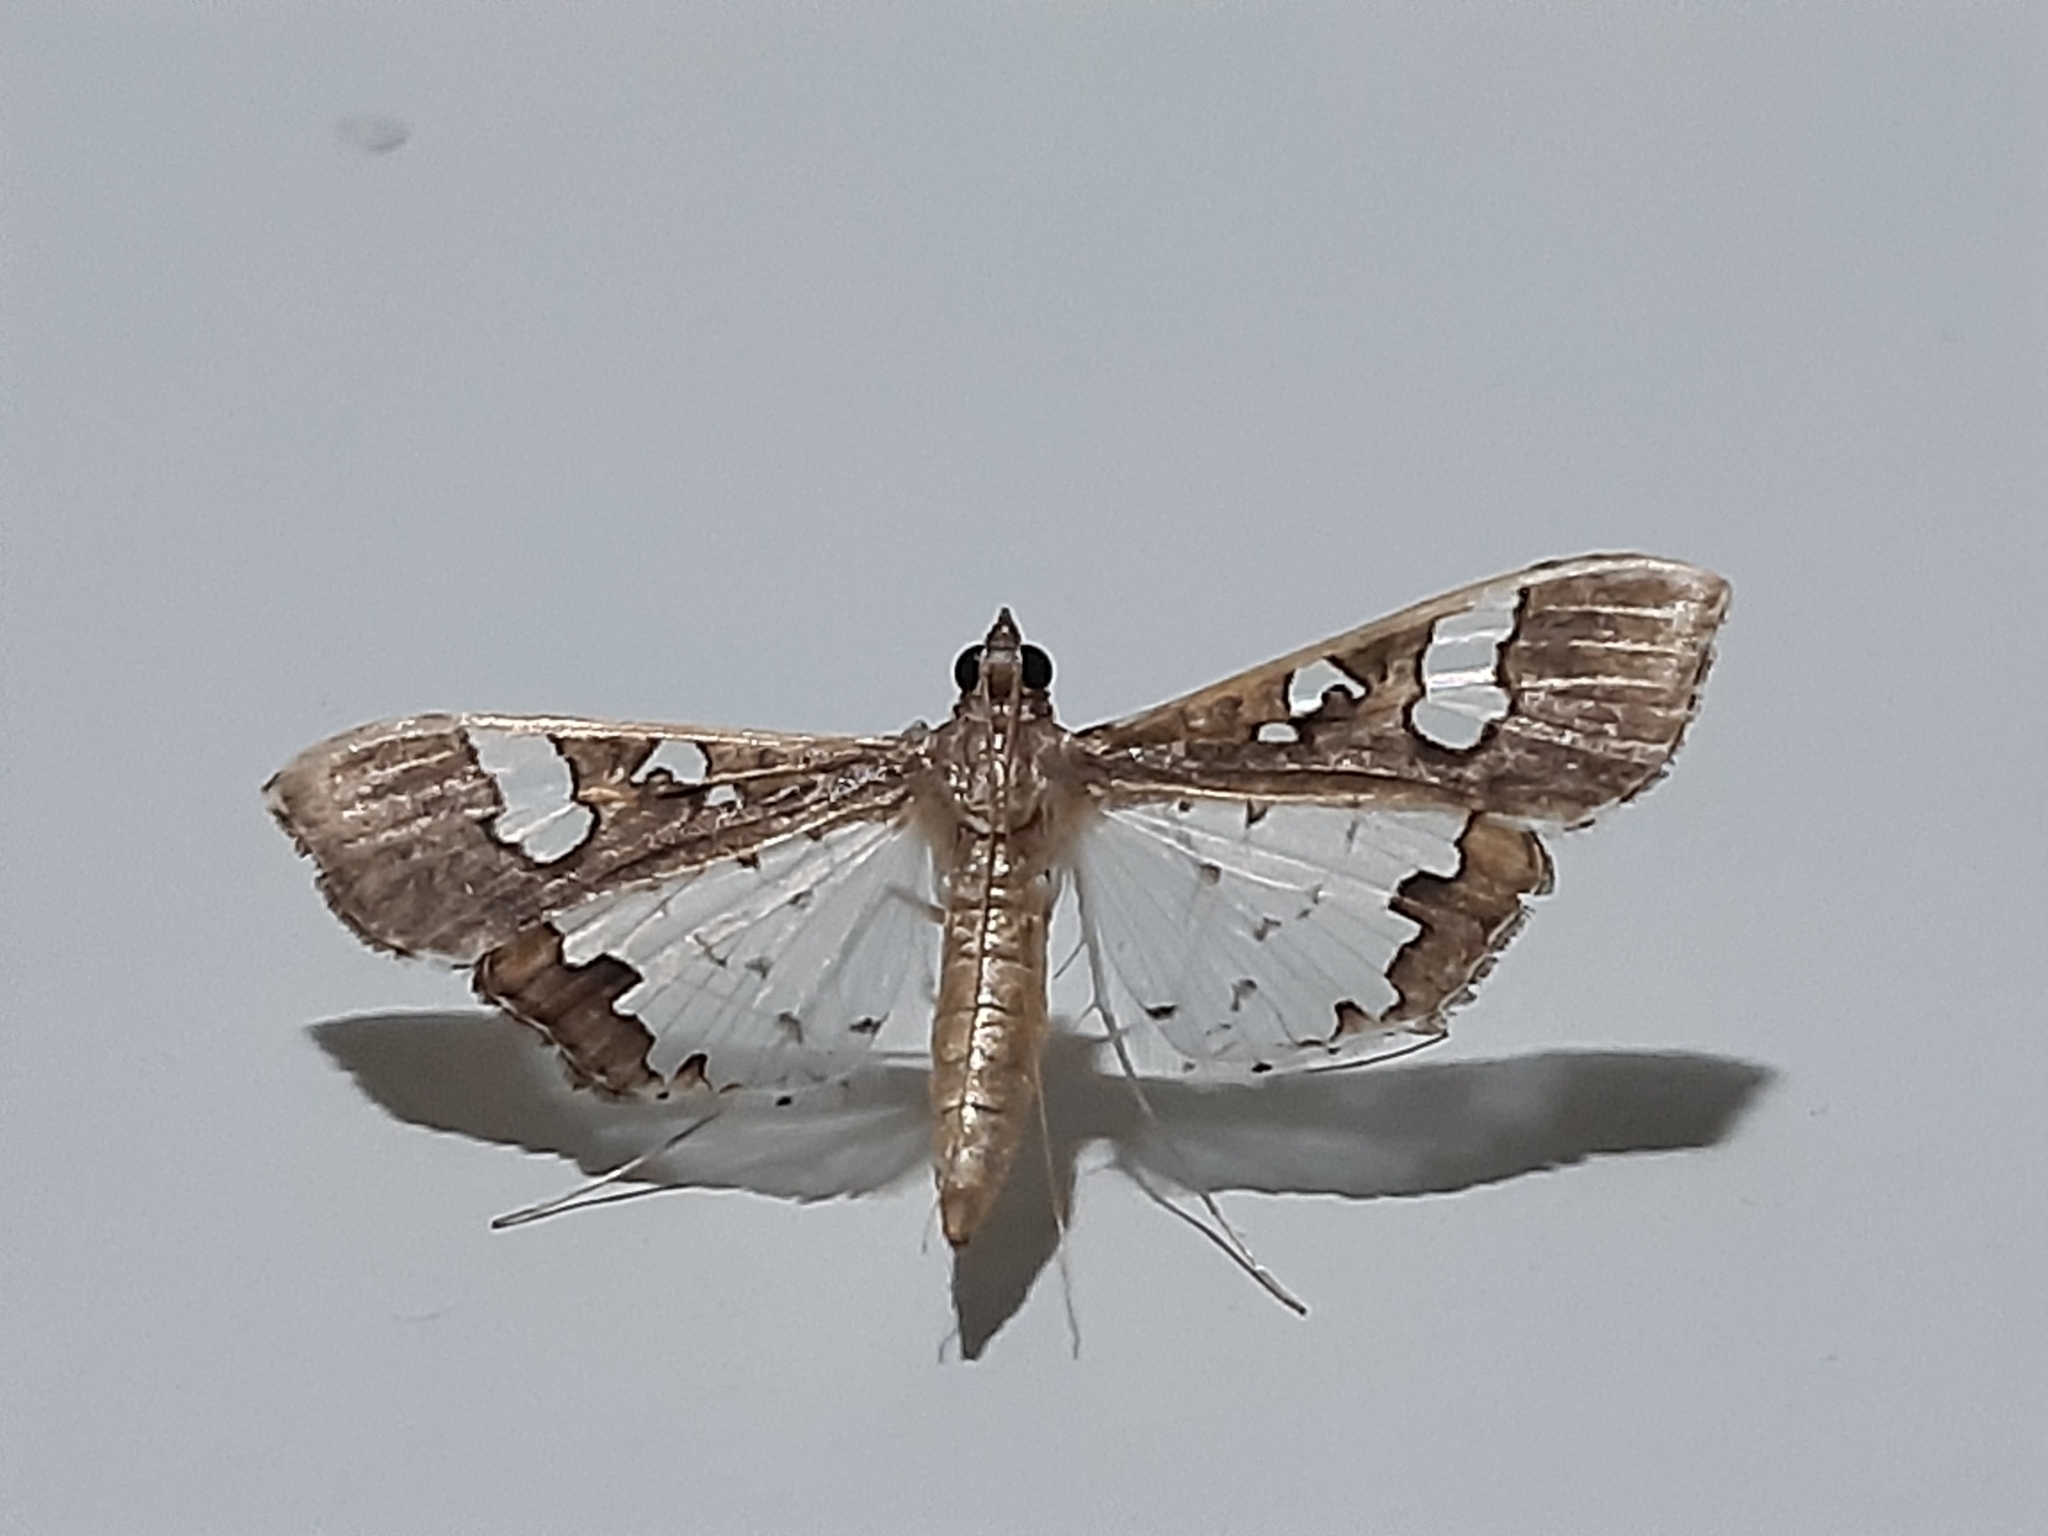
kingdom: Animalia
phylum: Arthropoda
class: Insecta
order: Lepidoptera
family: Crambidae
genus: Maruca
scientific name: Maruca vitrata
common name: Maruca pod borer
